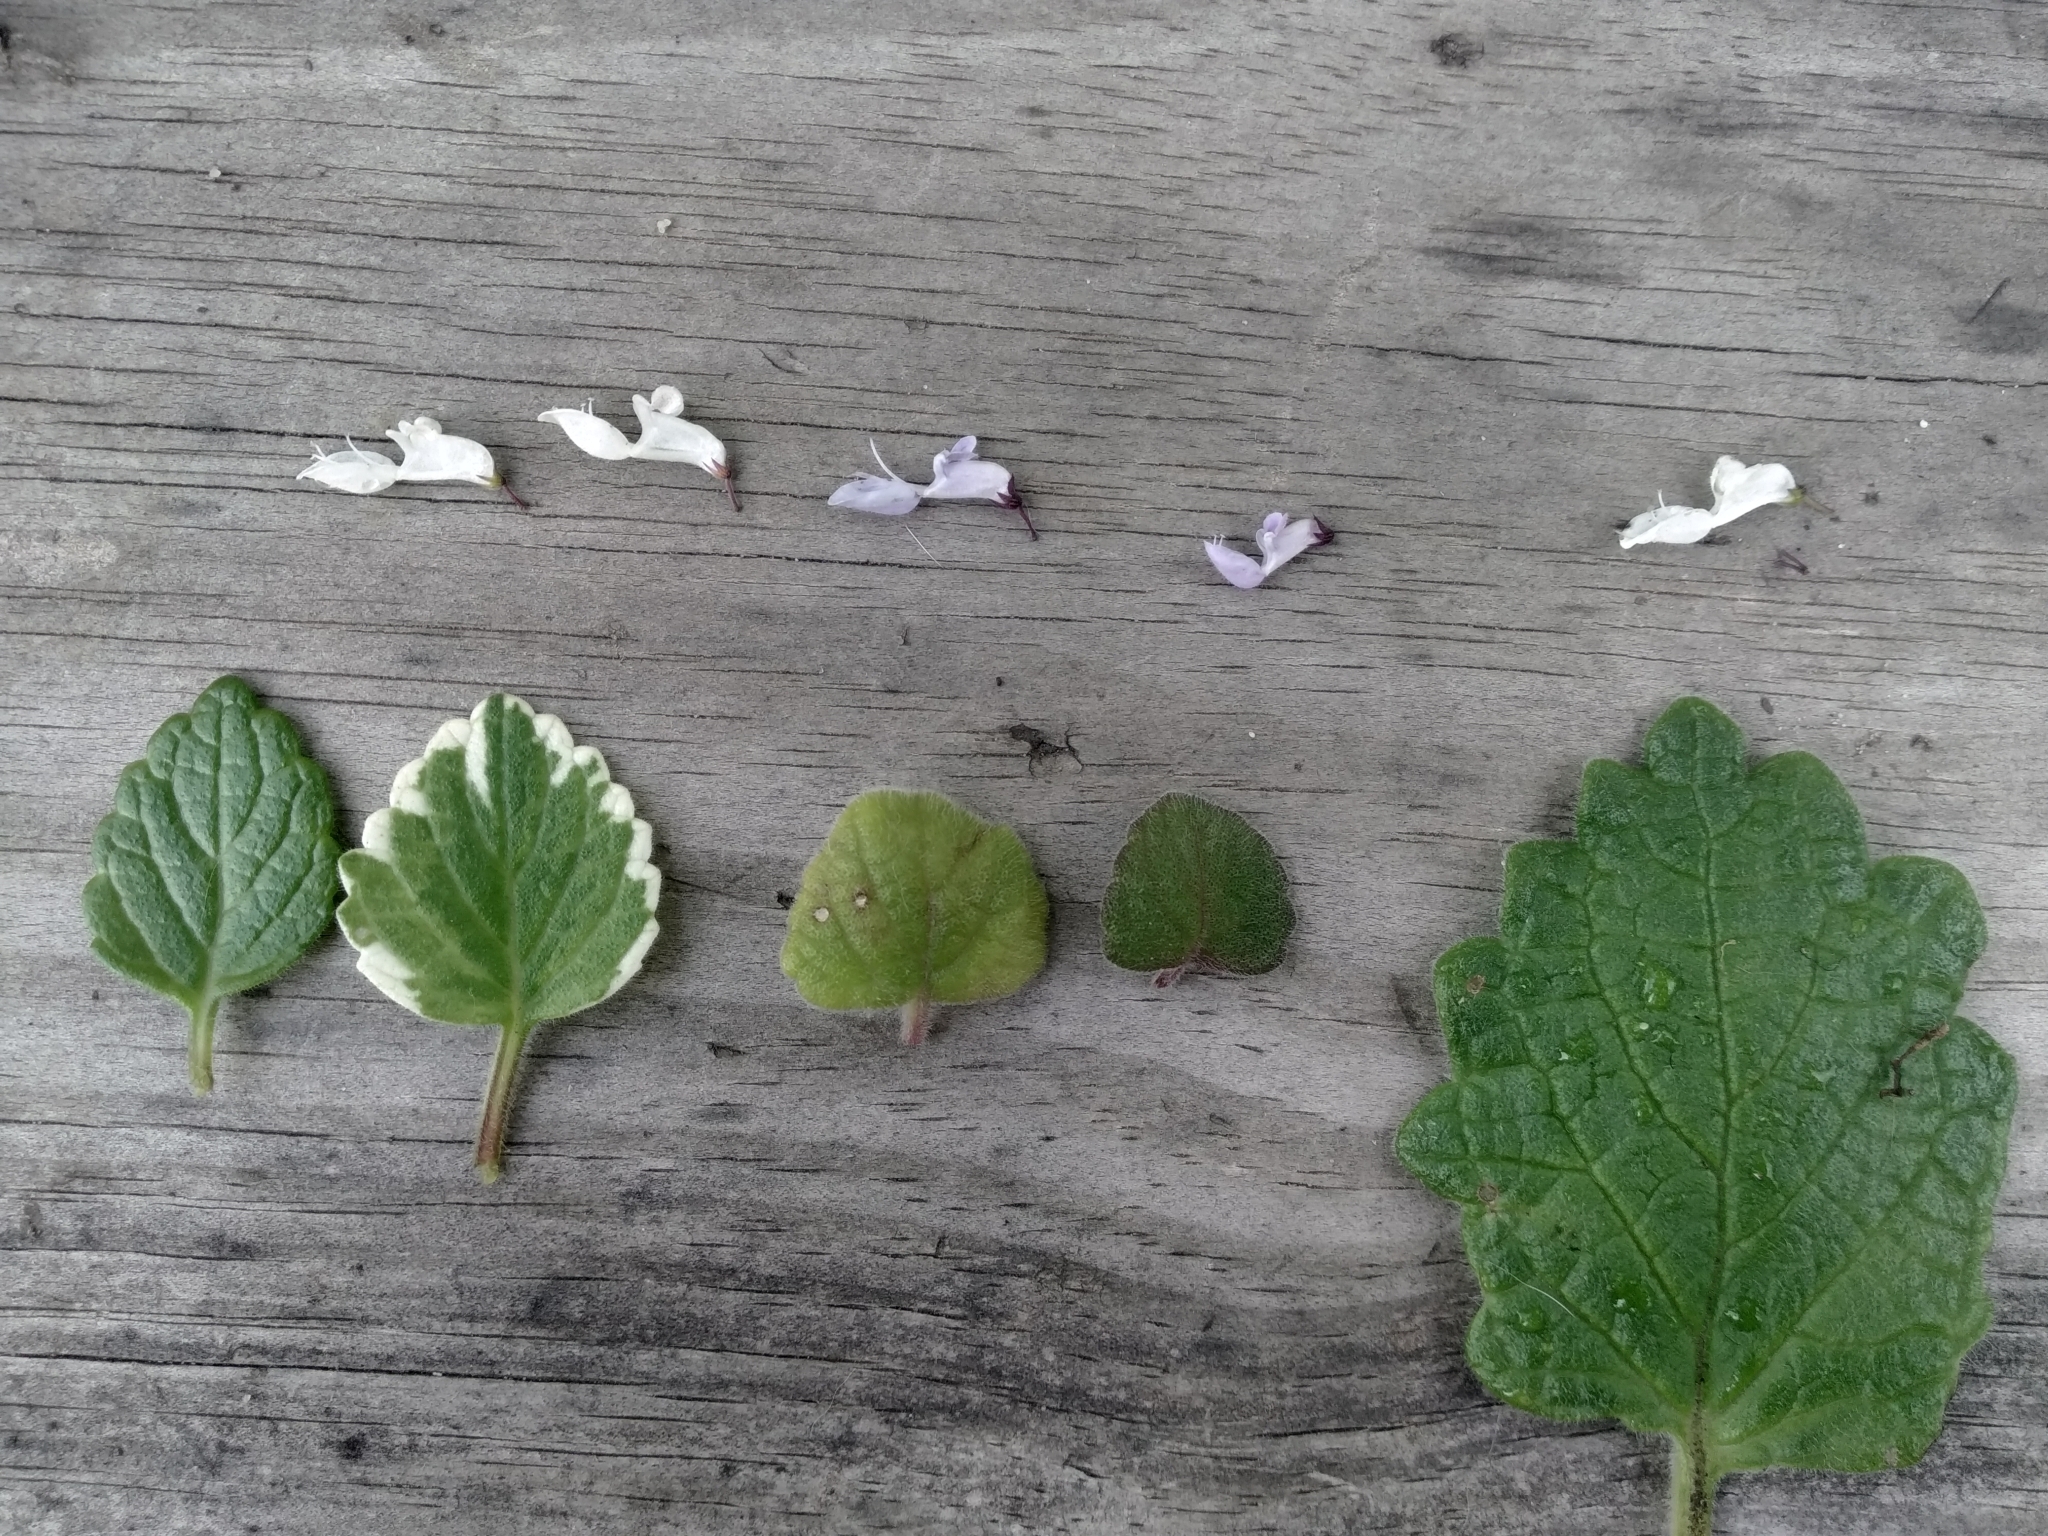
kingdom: Plantae
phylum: Tracheophyta
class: Magnoliopsida
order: Lamiales
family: Lamiaceae
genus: Coleus
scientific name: Coleus madagascariensis
